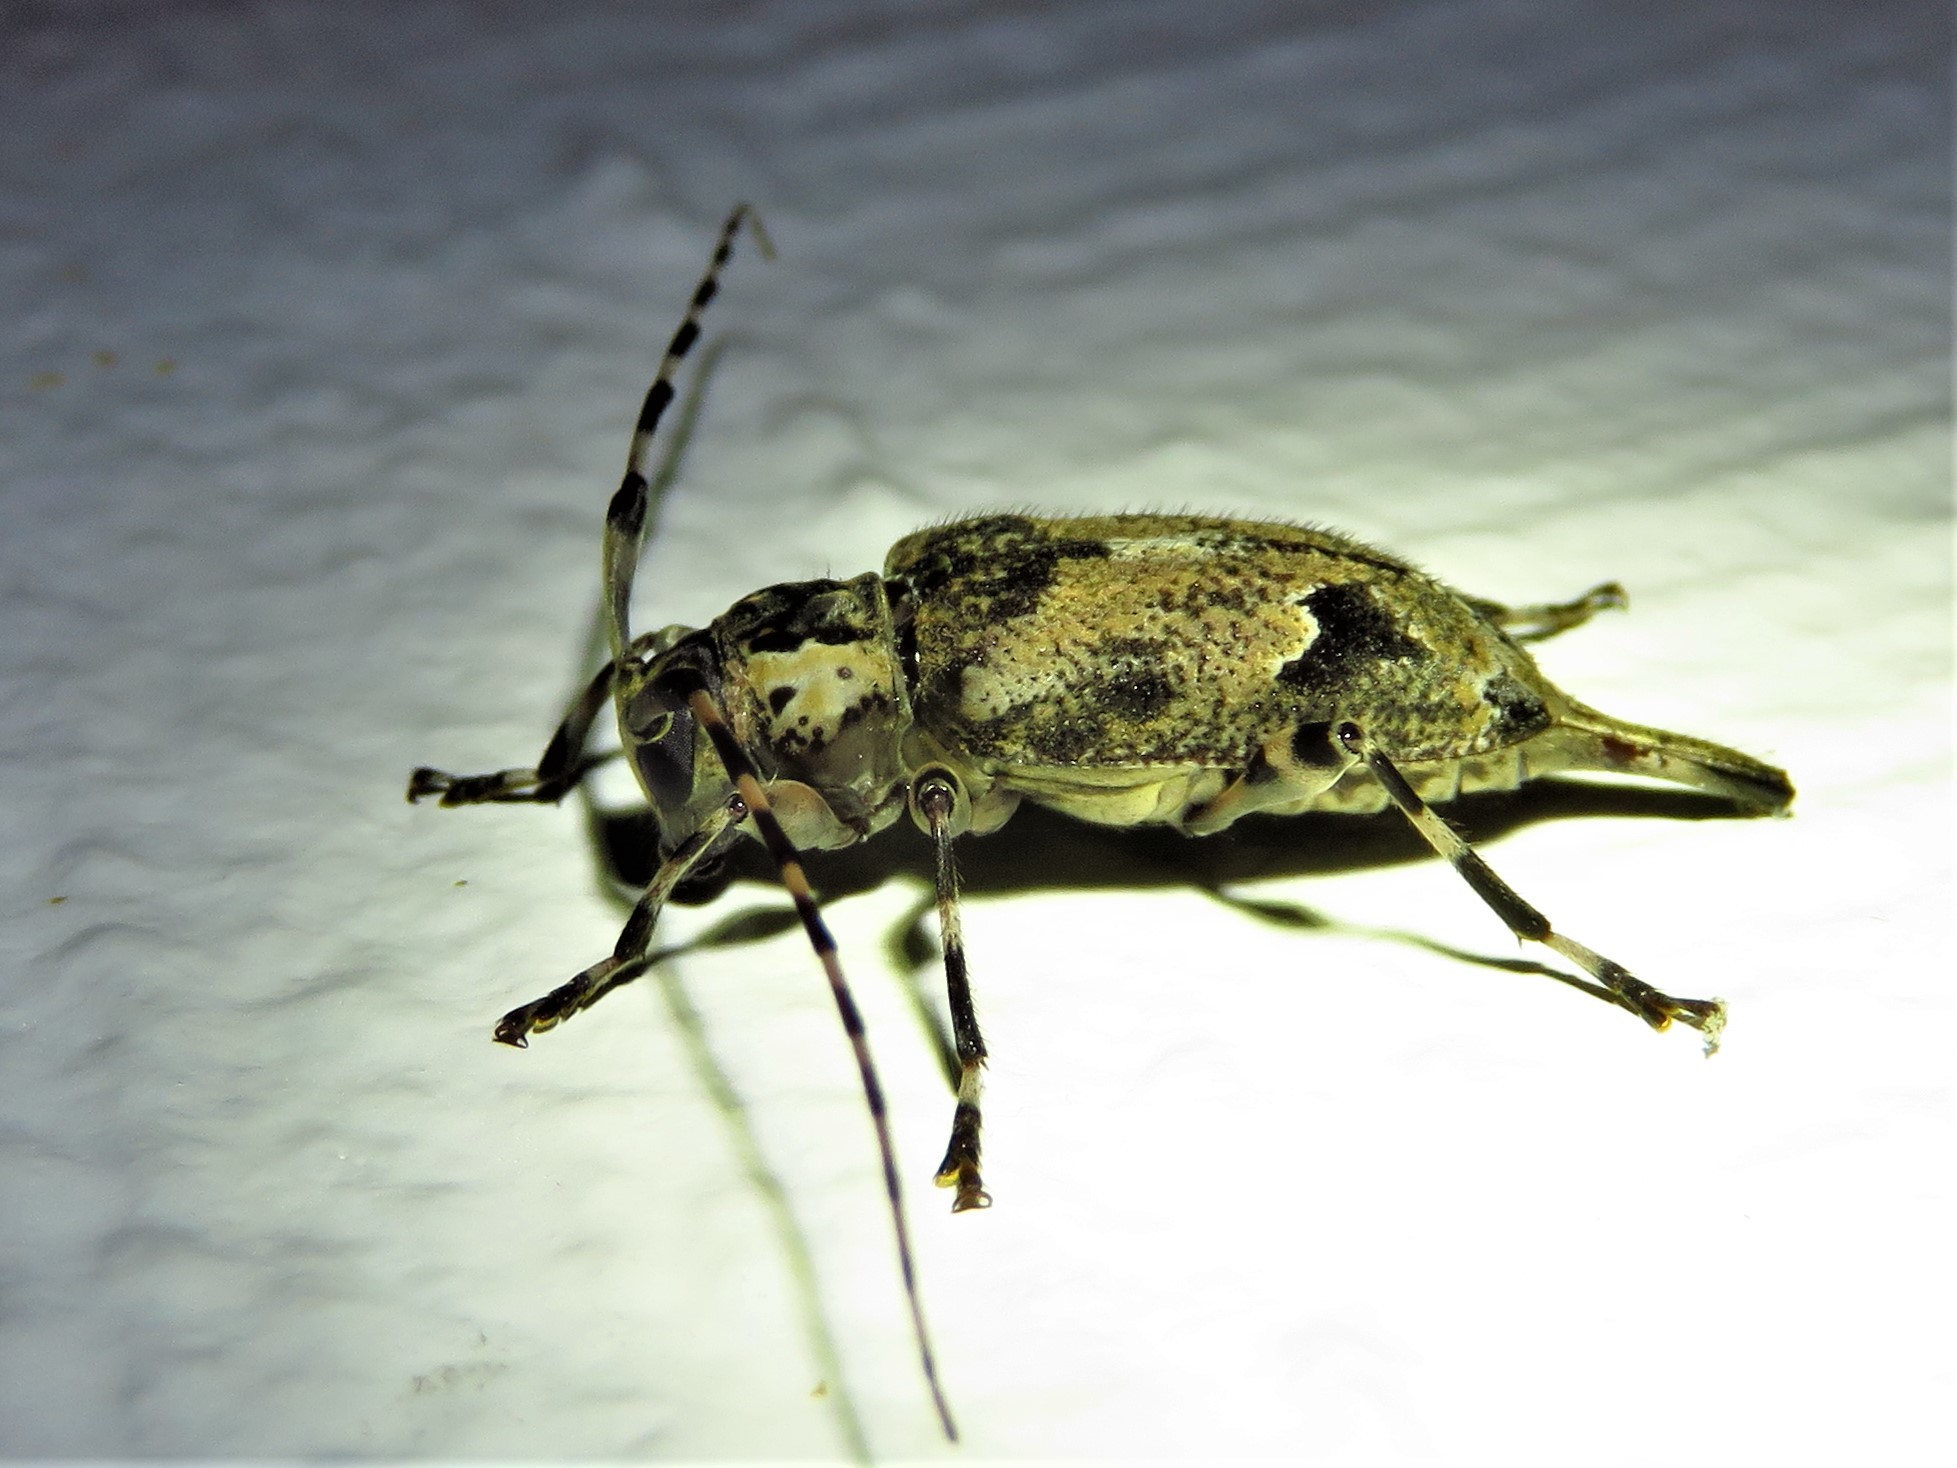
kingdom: Animalia
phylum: Arthropoda
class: Insecta
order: Coleoptera
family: Cerambycidae
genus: Graphisurus
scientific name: Graphisurus triangulifer
